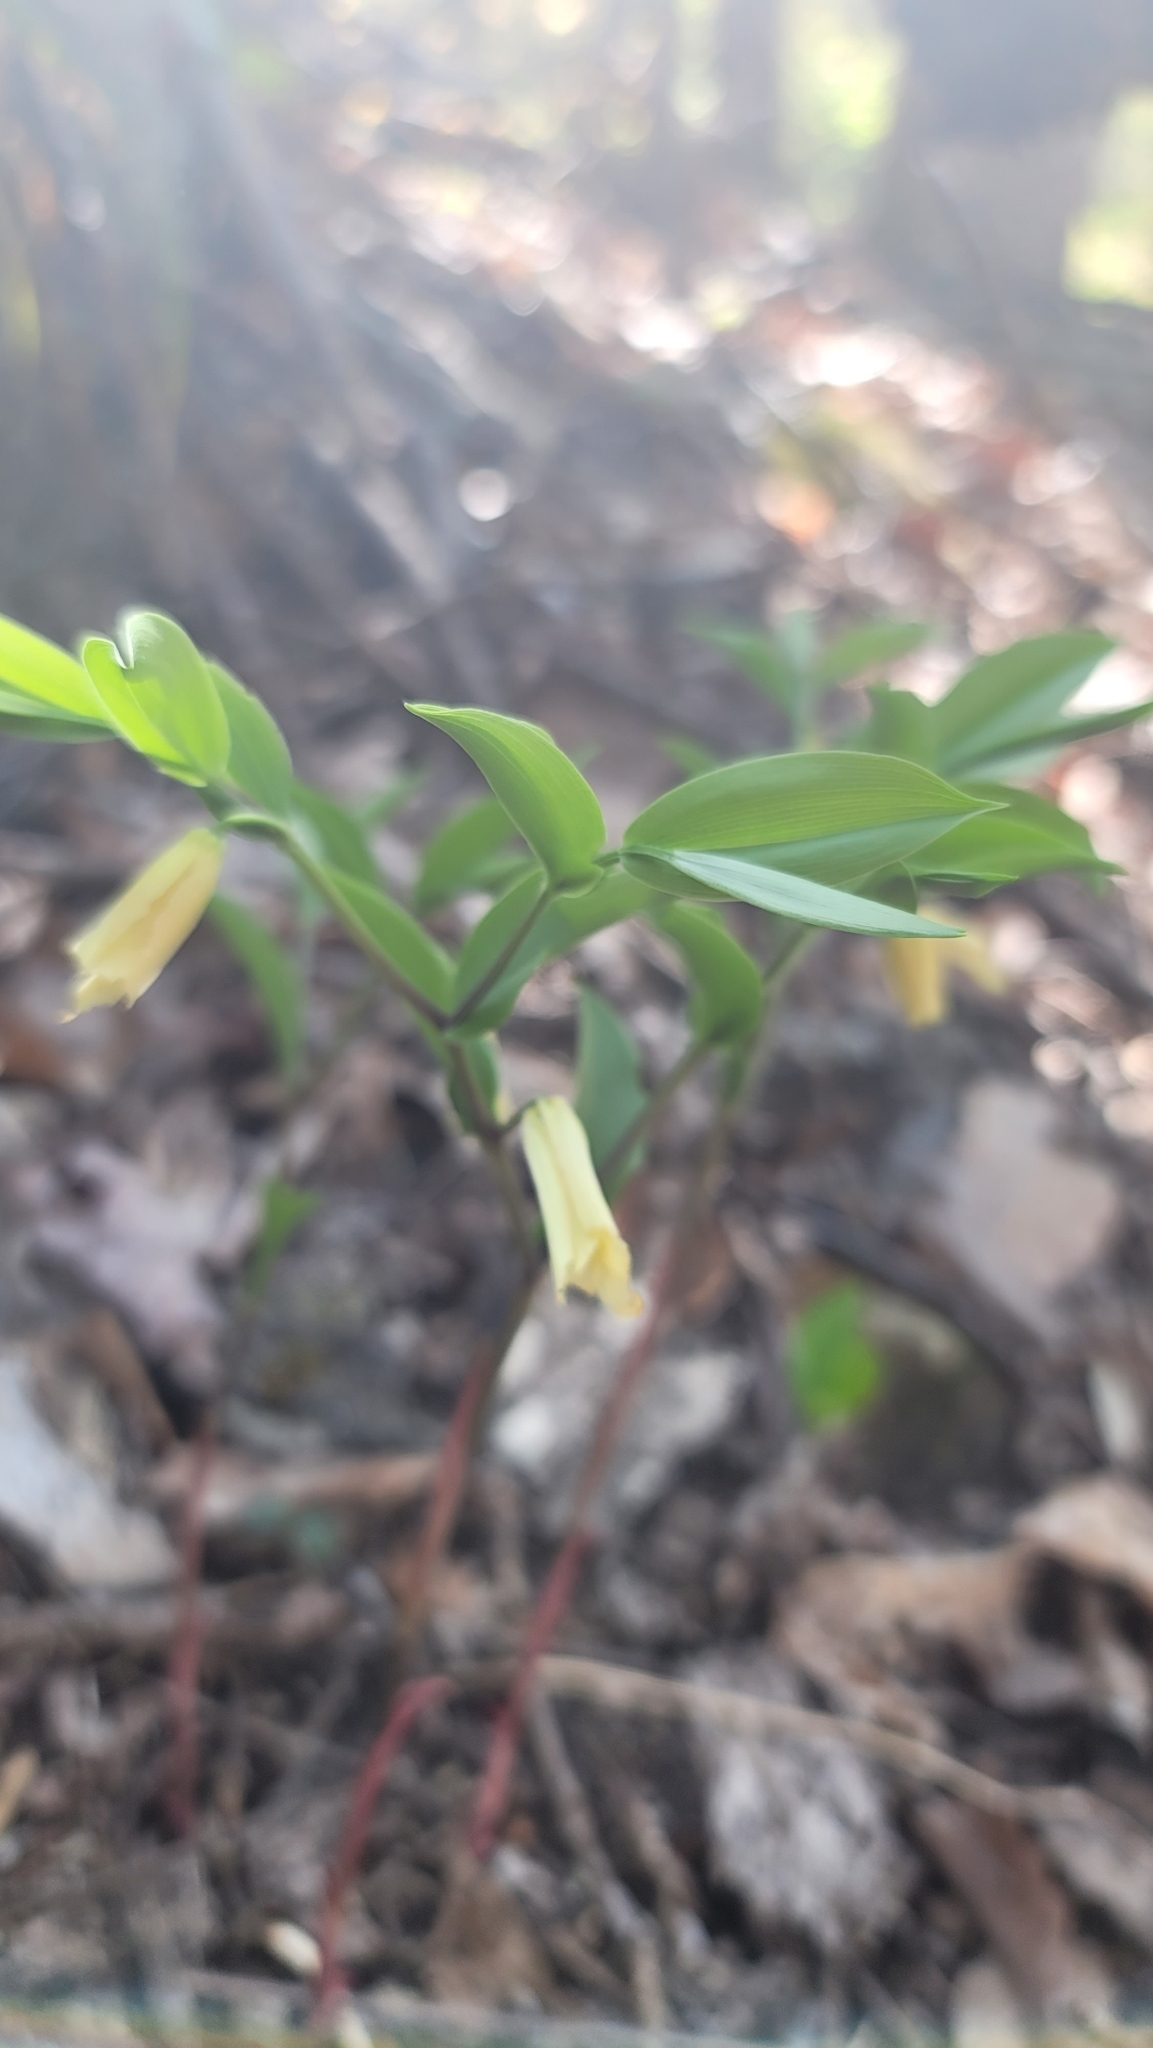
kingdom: Plantae
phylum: Tracheophyta
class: Liliopsida
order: Liliales
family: Colchicaceae
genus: Uvularia
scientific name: Uvularia puberula
